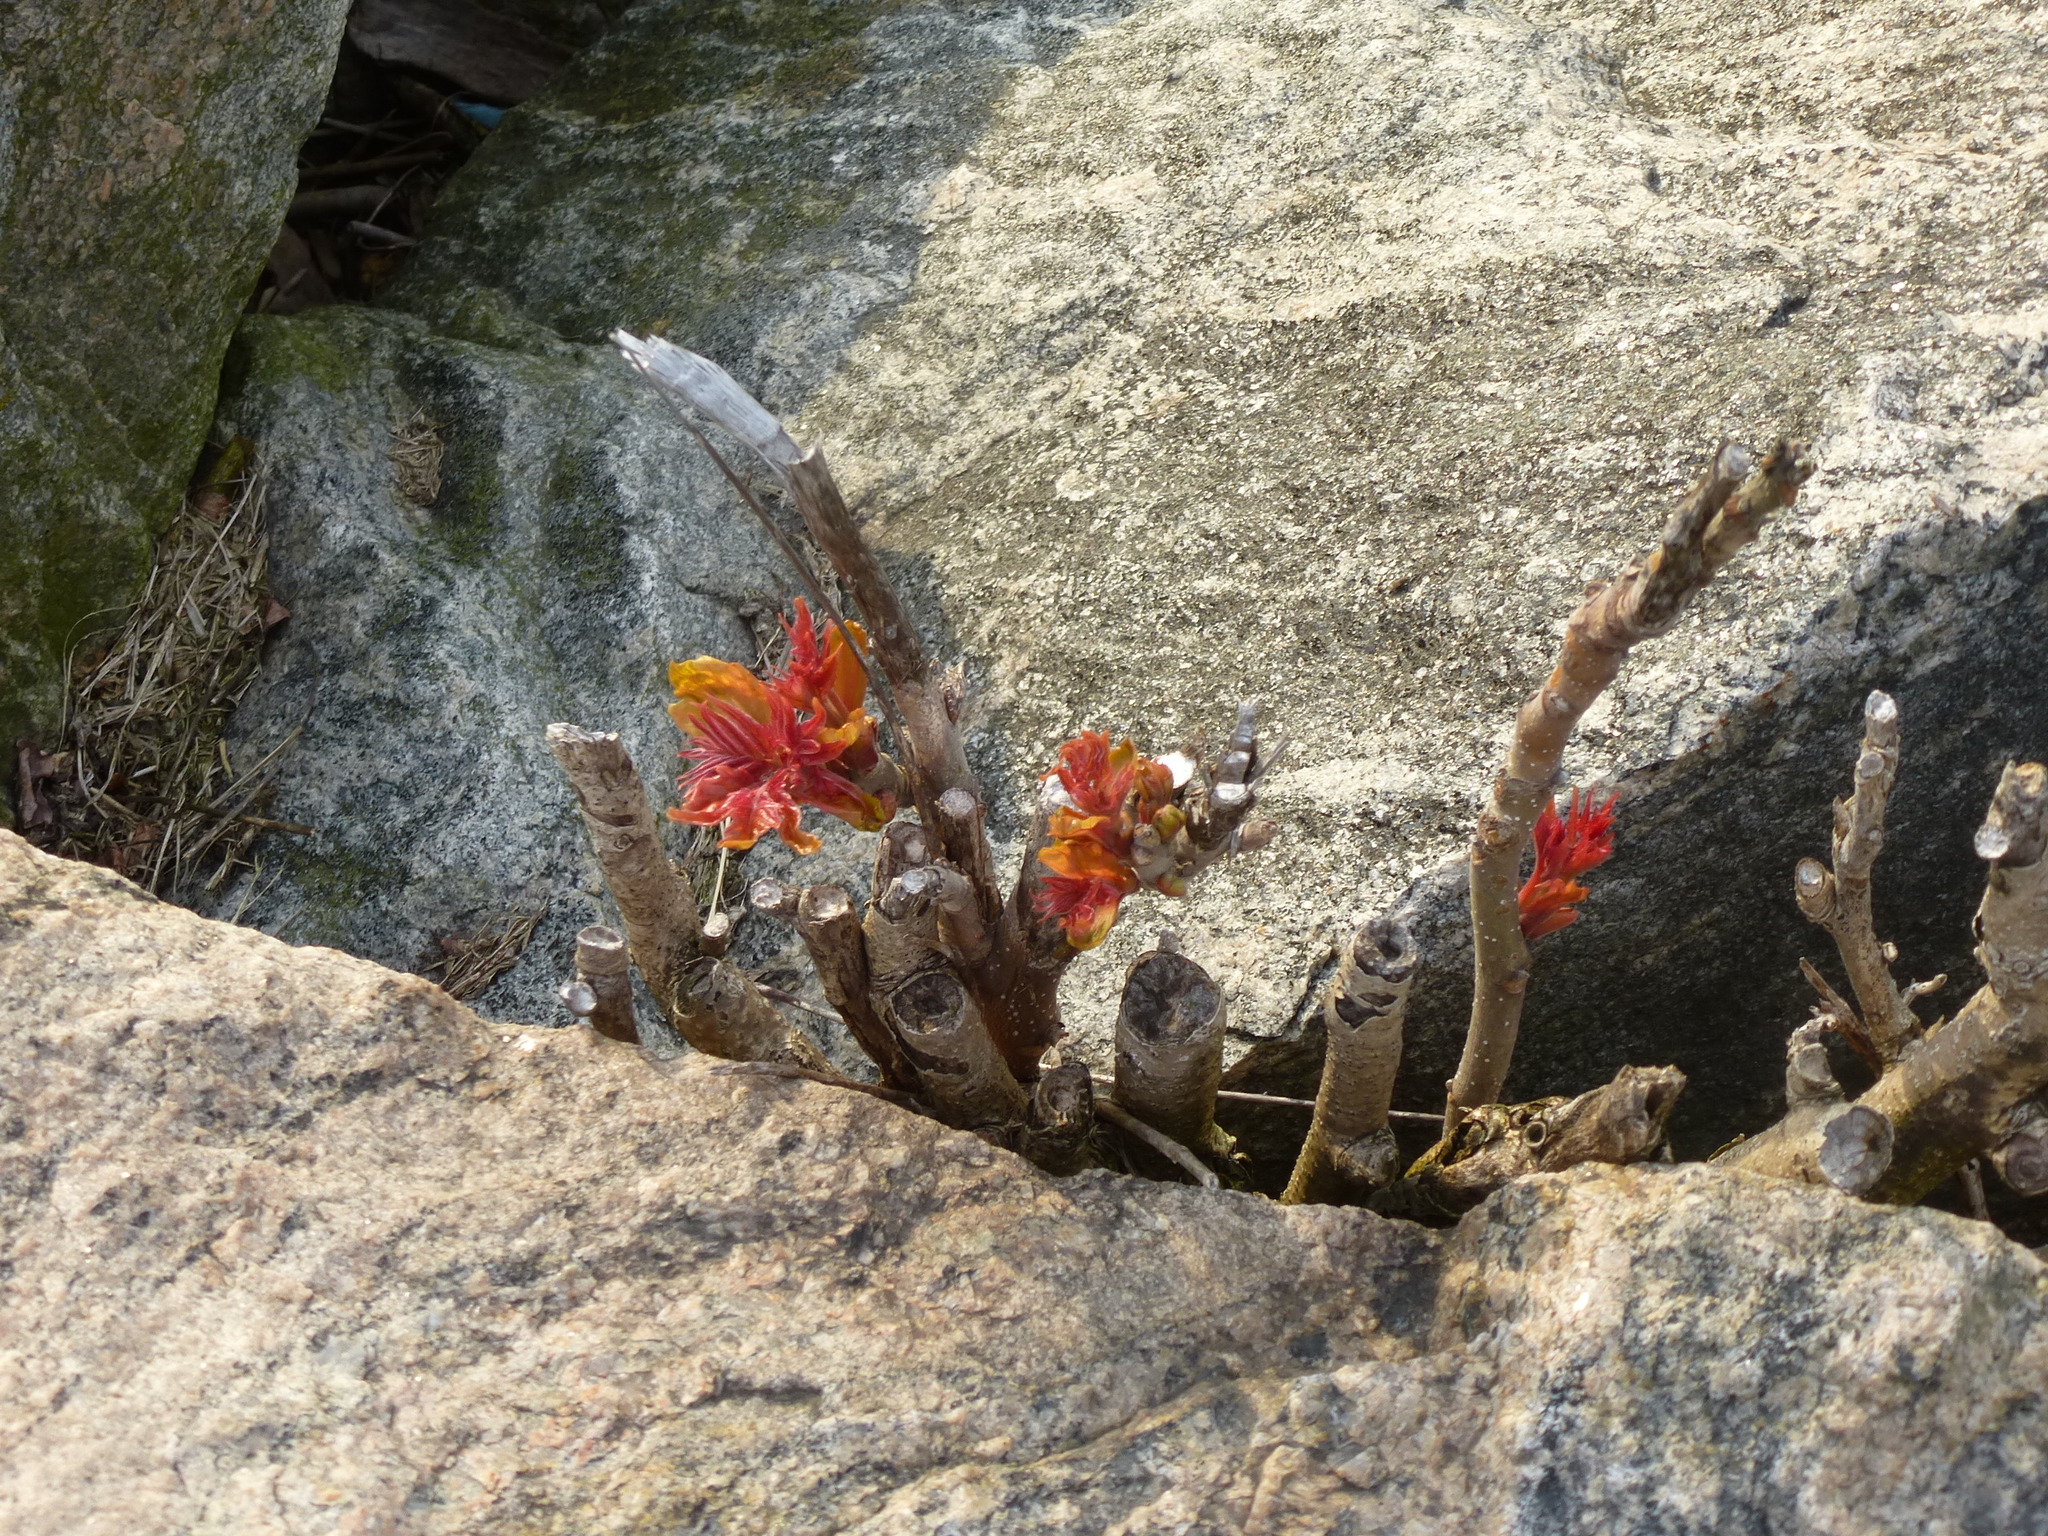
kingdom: Plantae
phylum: Tracheophyta
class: Magnoliopsida
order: Sapindales
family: Simaroubaceae
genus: Ailanthus
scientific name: Ailanthus altissima
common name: Tree-of-heaven
